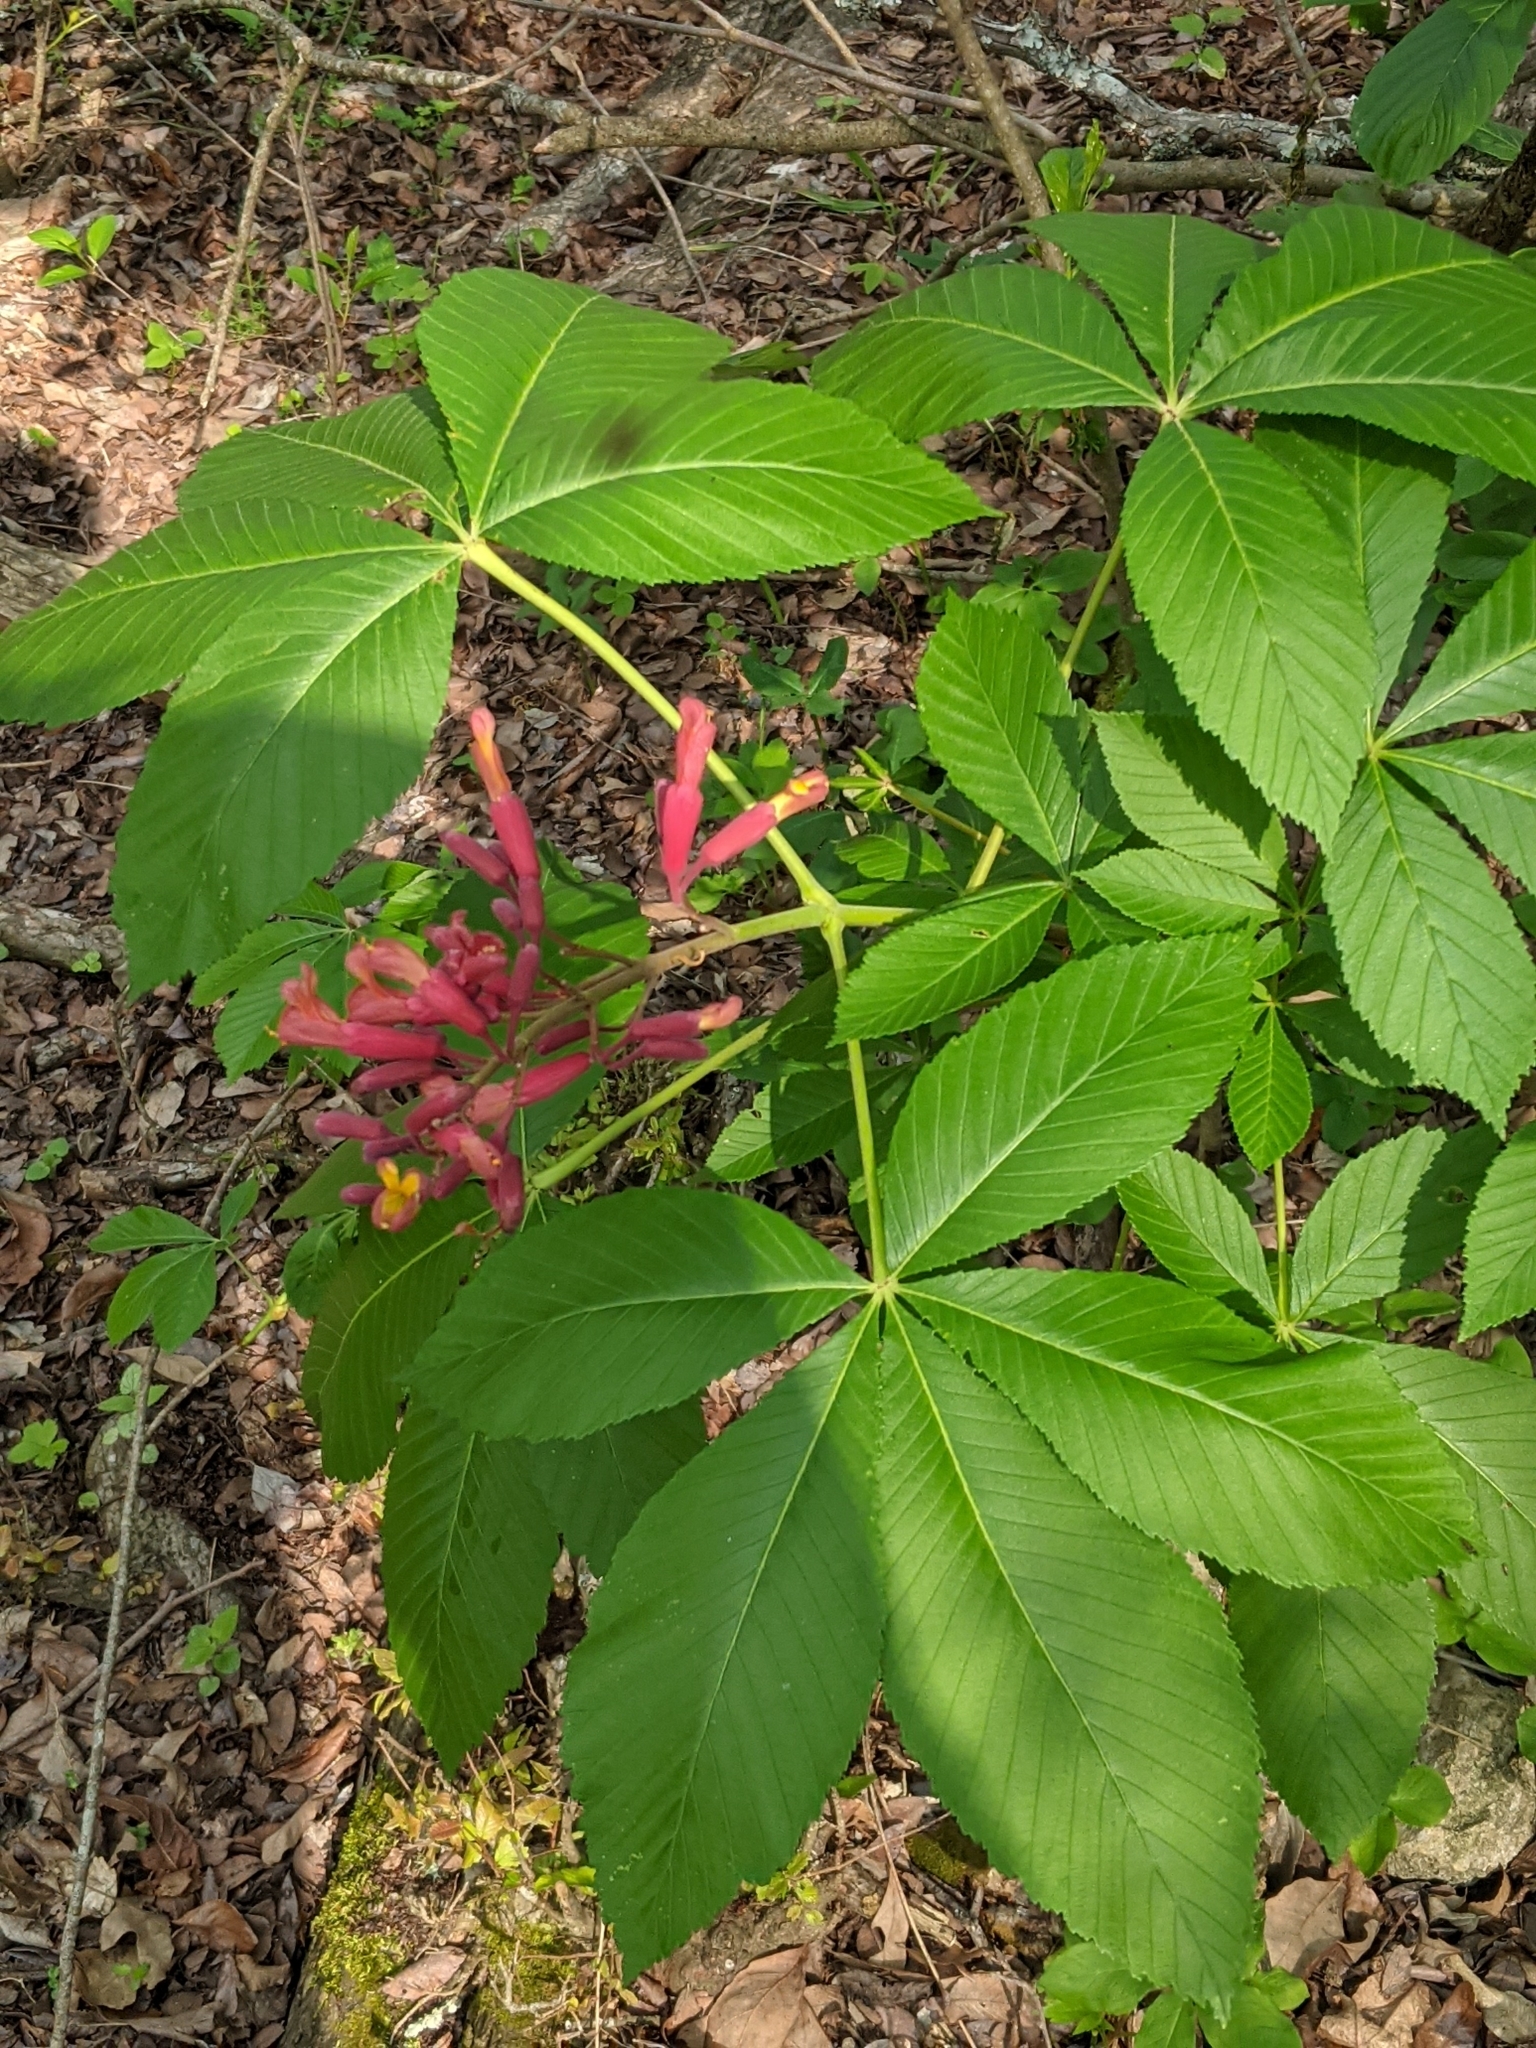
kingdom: Plantae
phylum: Tracheophyta
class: Magnoliopsida
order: Sapindales
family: Sapindaceae
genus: Aesculus
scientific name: Aesculus pavia
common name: Red buckeye
